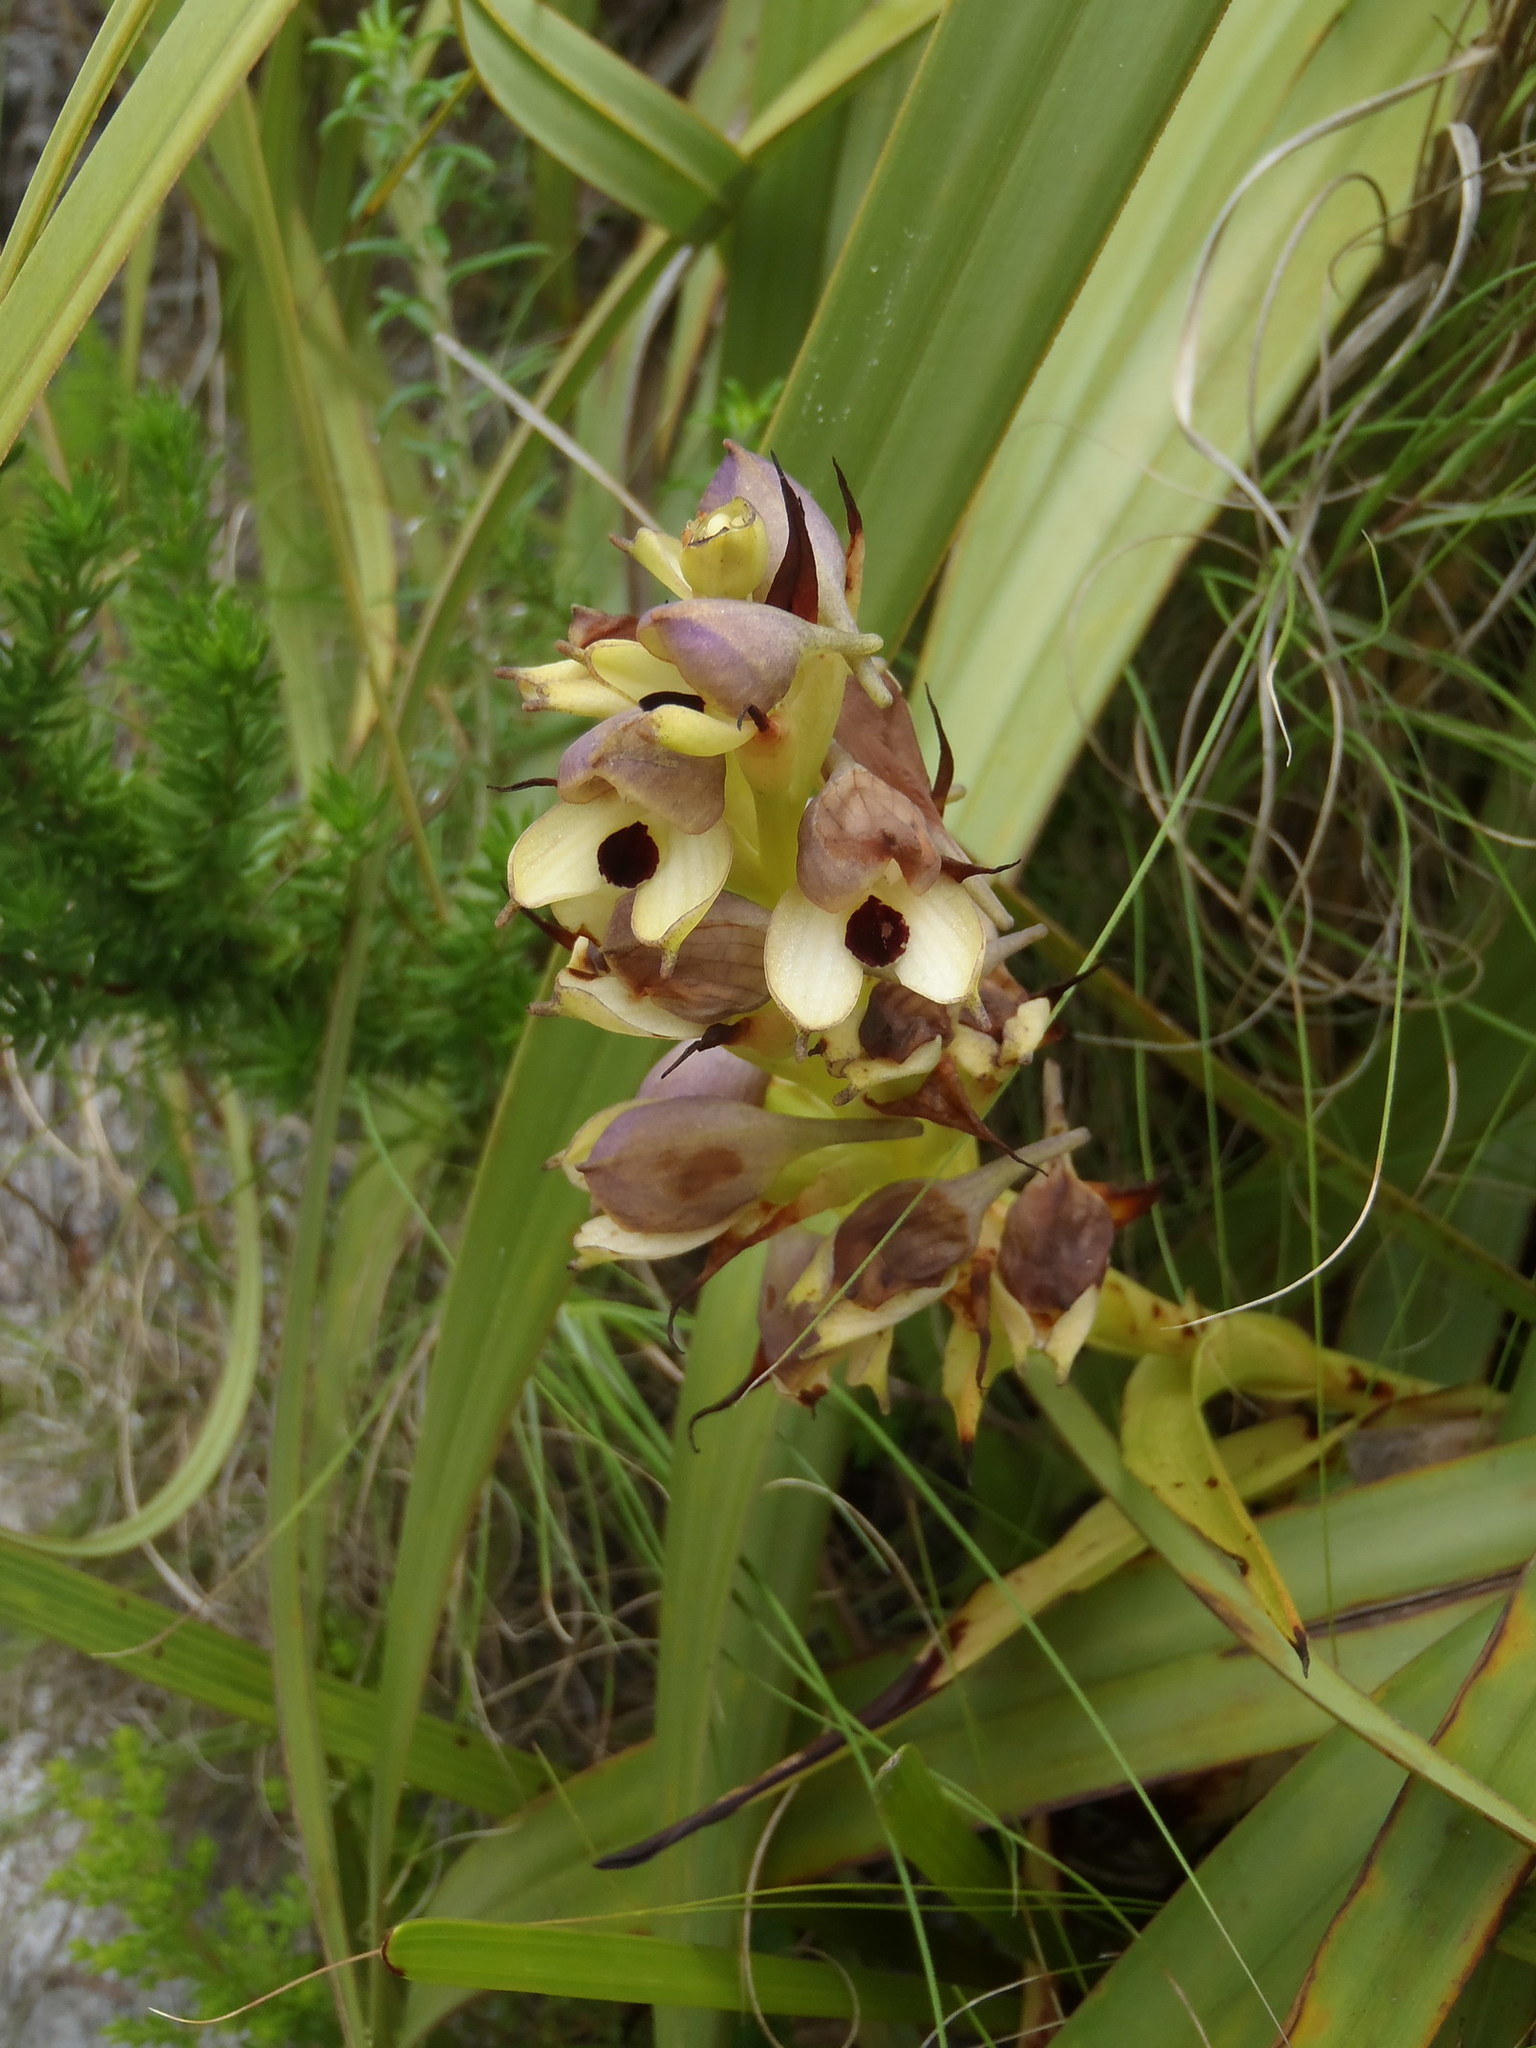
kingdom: Plantae
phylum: Tracheophyta
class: Liliopsida
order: Asparagales
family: Orchidaceae
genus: Disa
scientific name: Disa cornuta
